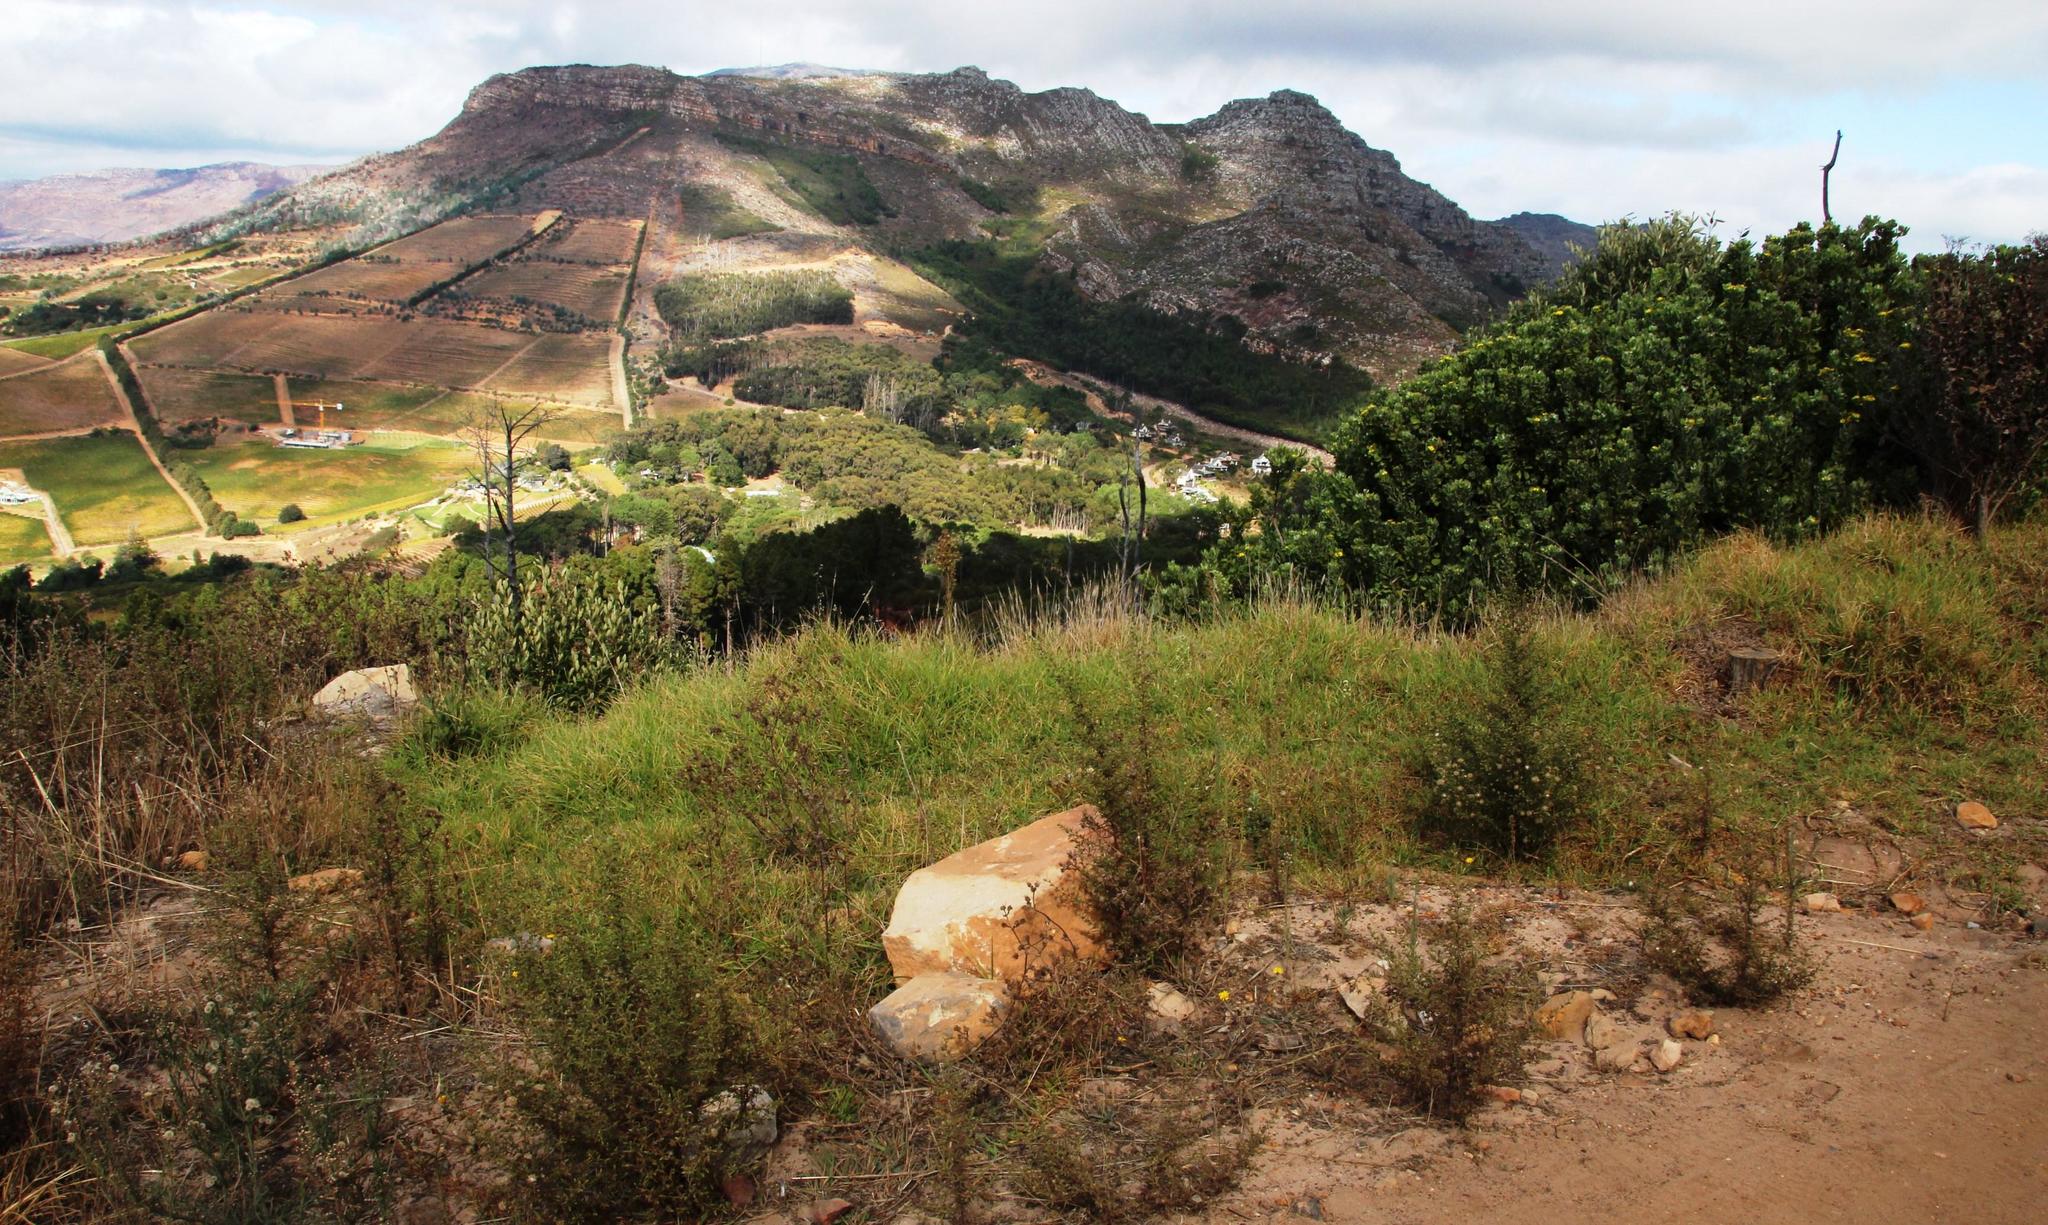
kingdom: Plantae
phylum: Tracheophyta
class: Liliopsida
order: Poales
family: Poaceae
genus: Cenchrus
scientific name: Cenchrus clandestinus
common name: Kikuyugrass
